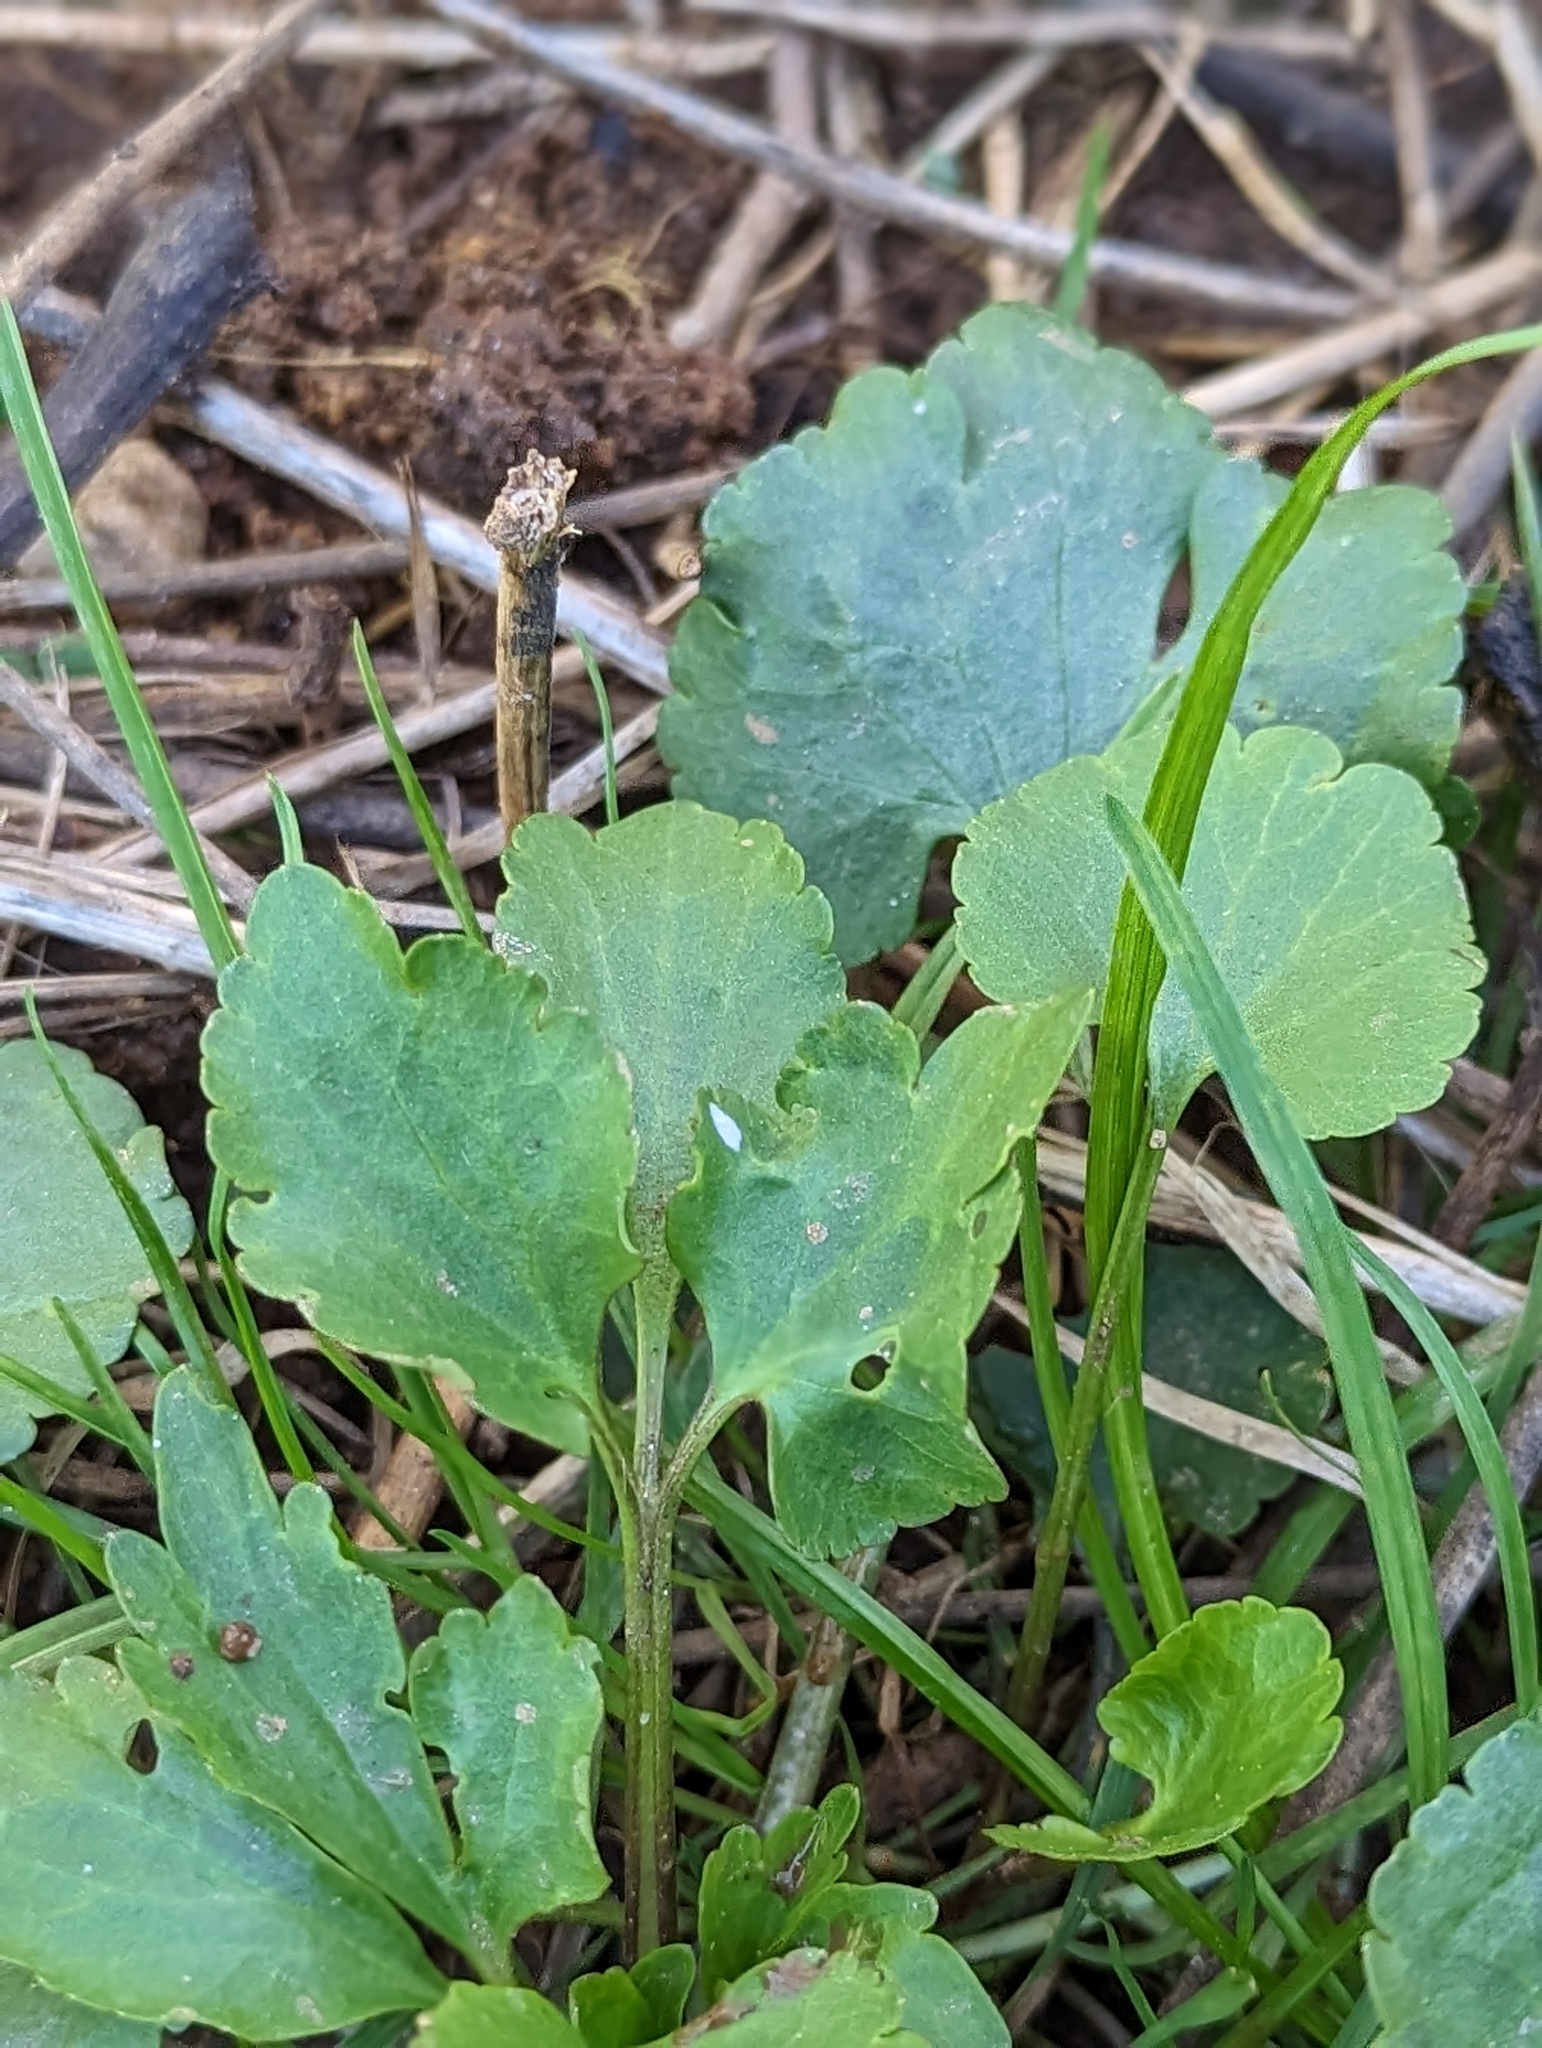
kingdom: Plantae
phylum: Tracheophyta
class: Magnoliopsida
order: Ranunculales
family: Ranunculaceae
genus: Ranunculus
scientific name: Ranunculus abortivus
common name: Early wood buttercup
